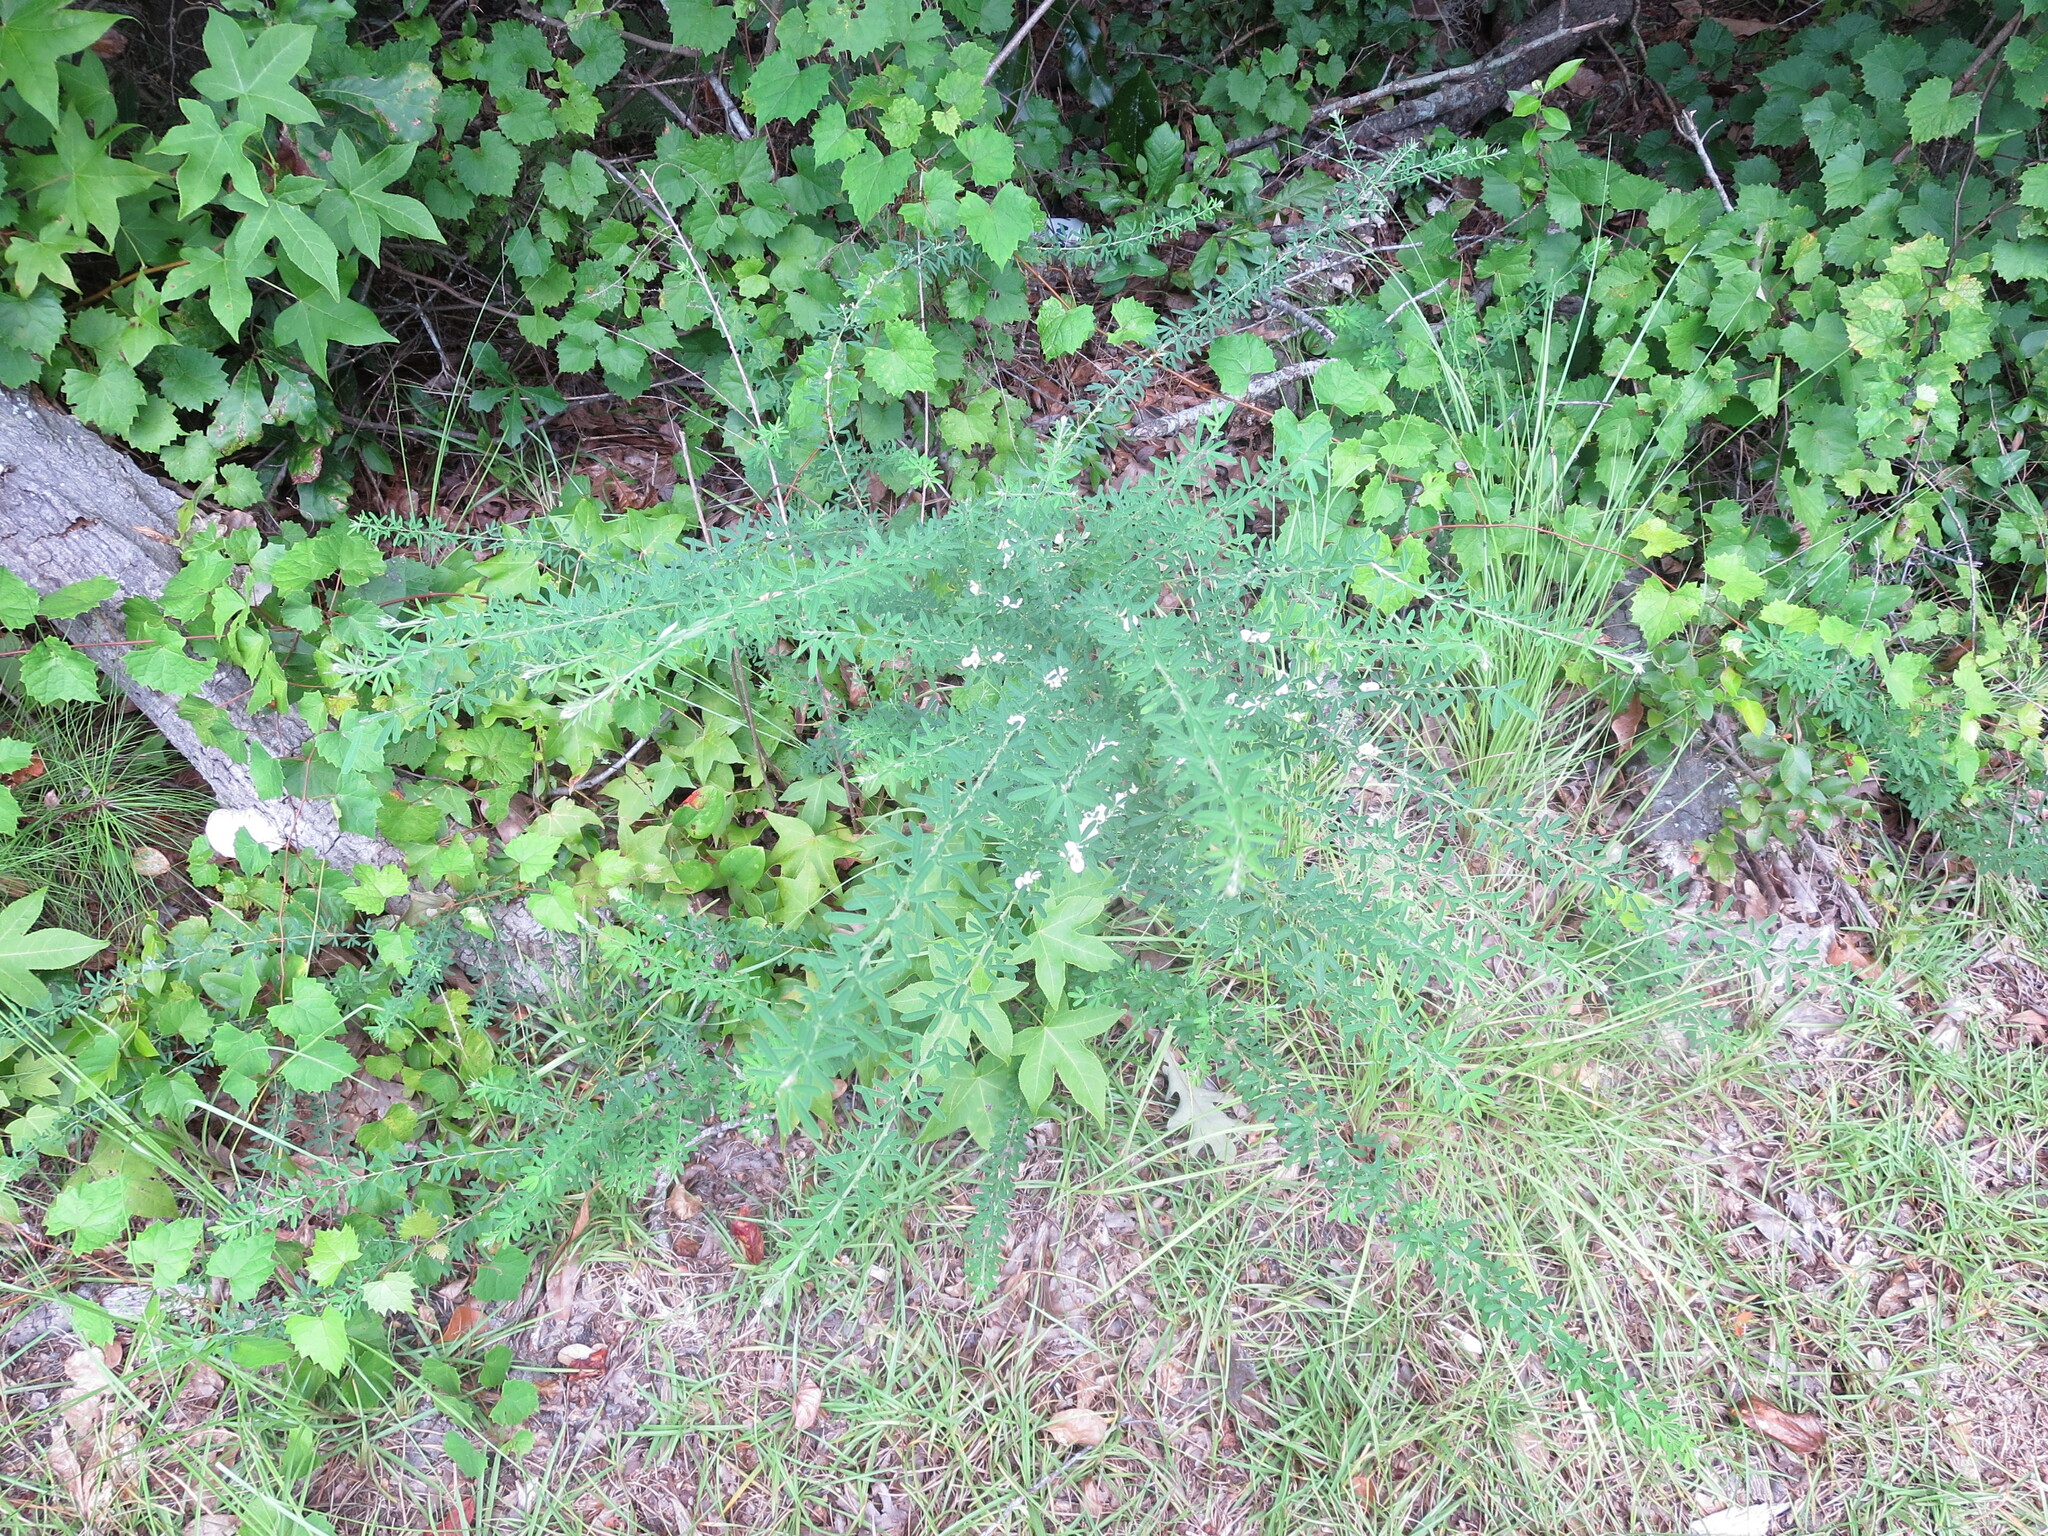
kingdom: Plantae
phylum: Tracheophyta
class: Magnoliopsida
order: Fabales
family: Fabaceae
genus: Lespedeza
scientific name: Lespedeza cuneata
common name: Chinese bush-clover
